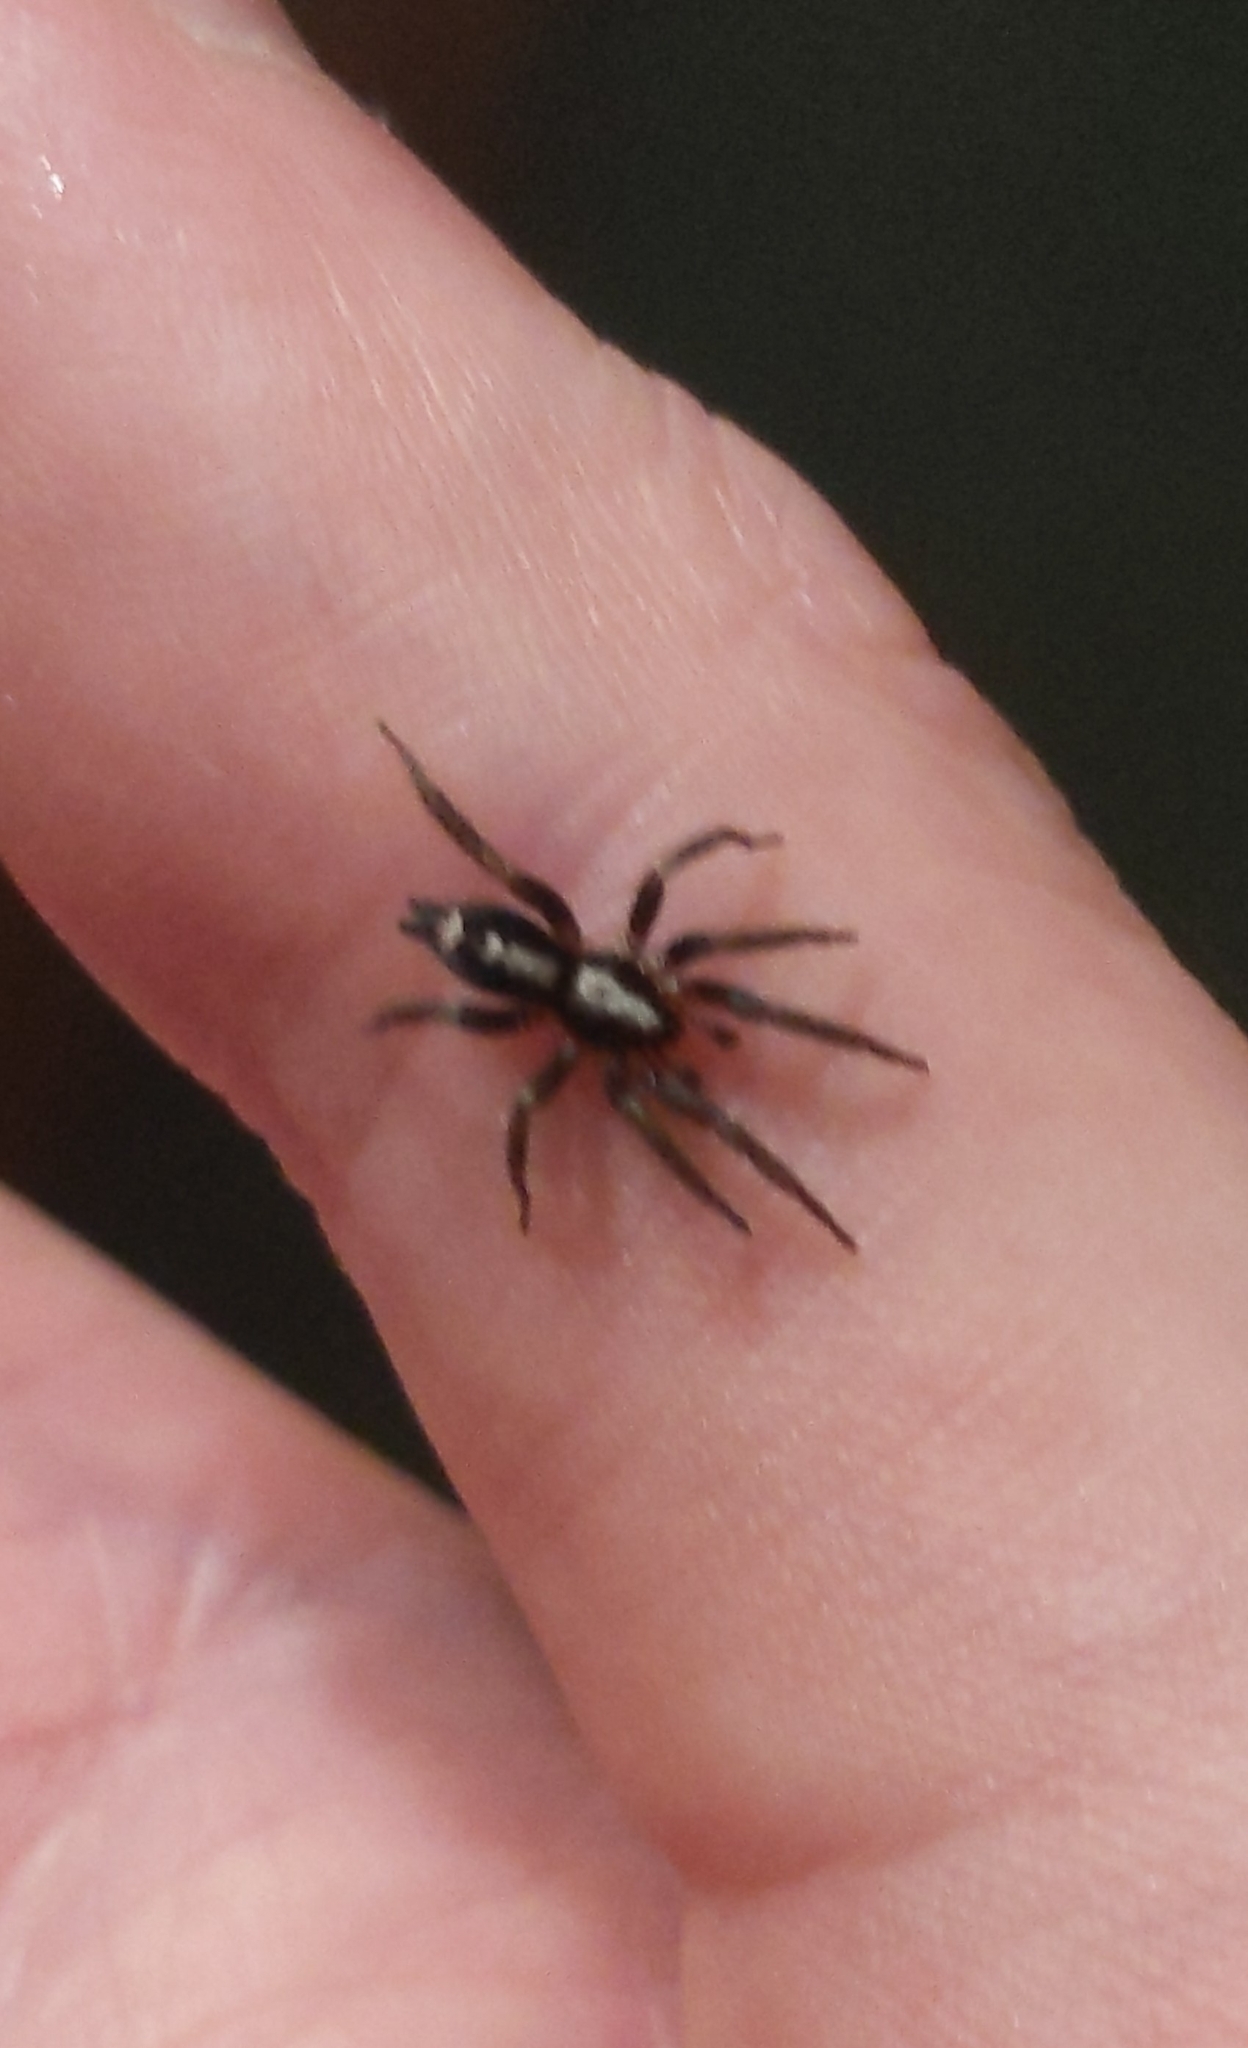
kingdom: Animalia
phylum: Arthropoda
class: Arachnida
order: Araneae
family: Gnaphosidae
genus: Herpyllus
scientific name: Herpyllus ecclesiasticus
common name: Eastern parson spider
